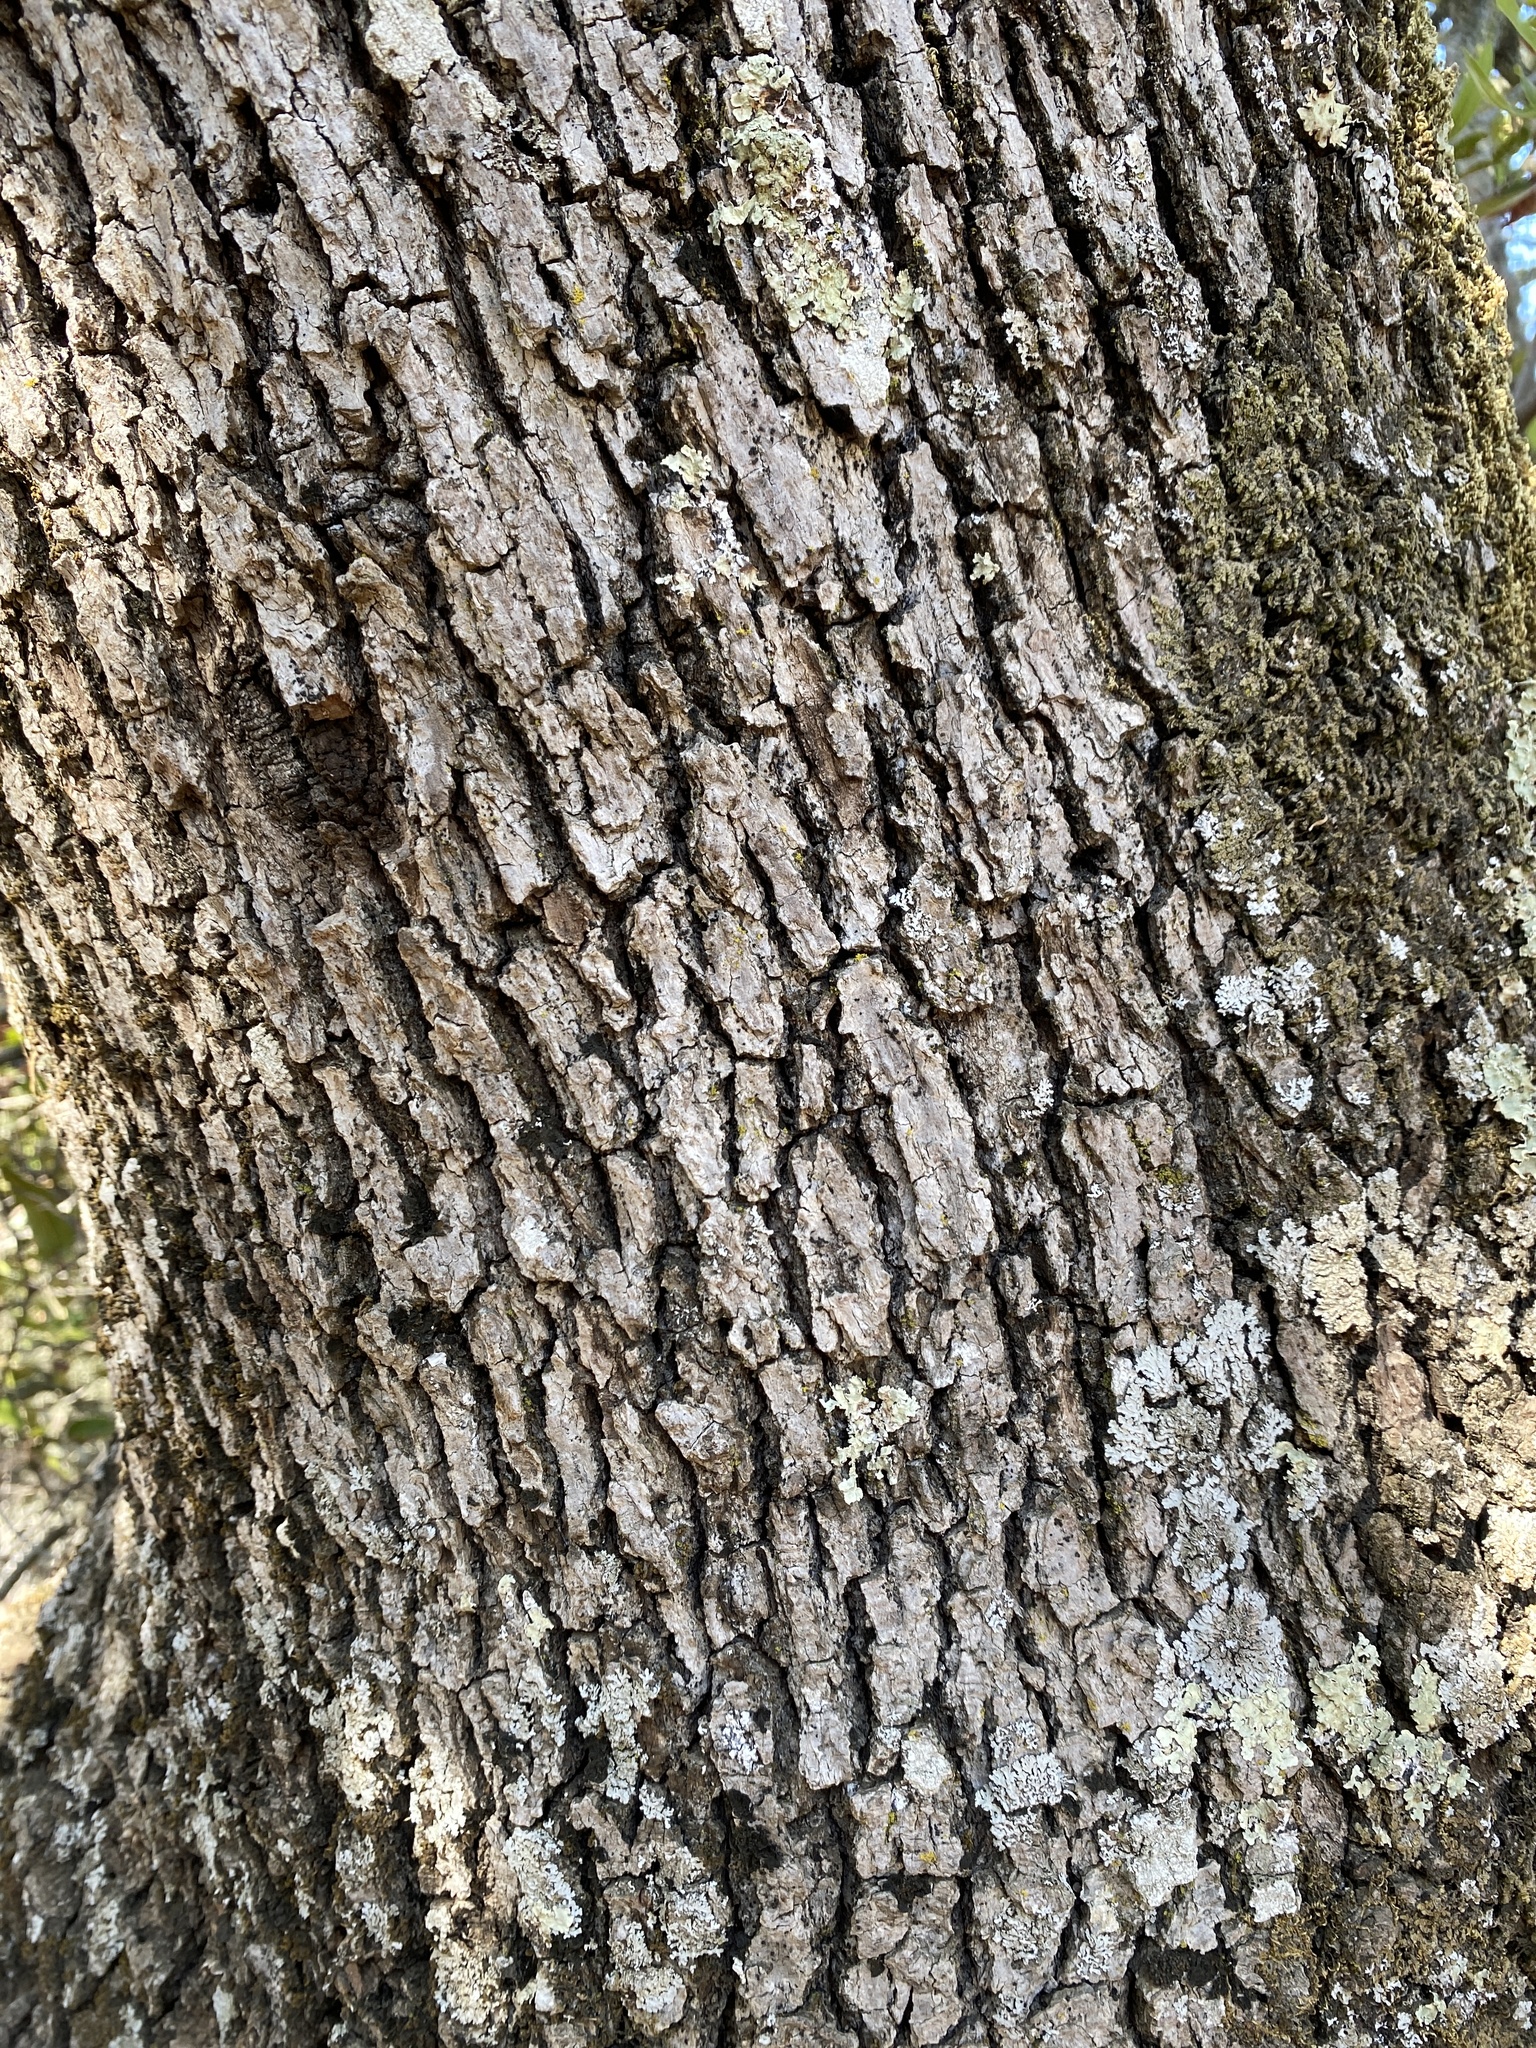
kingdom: Plantae
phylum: Tracheophyta
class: Magnoliopsida
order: Fagales
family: Fagaceae
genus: Quercus
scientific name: Quercus douglasii
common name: Blue oak
